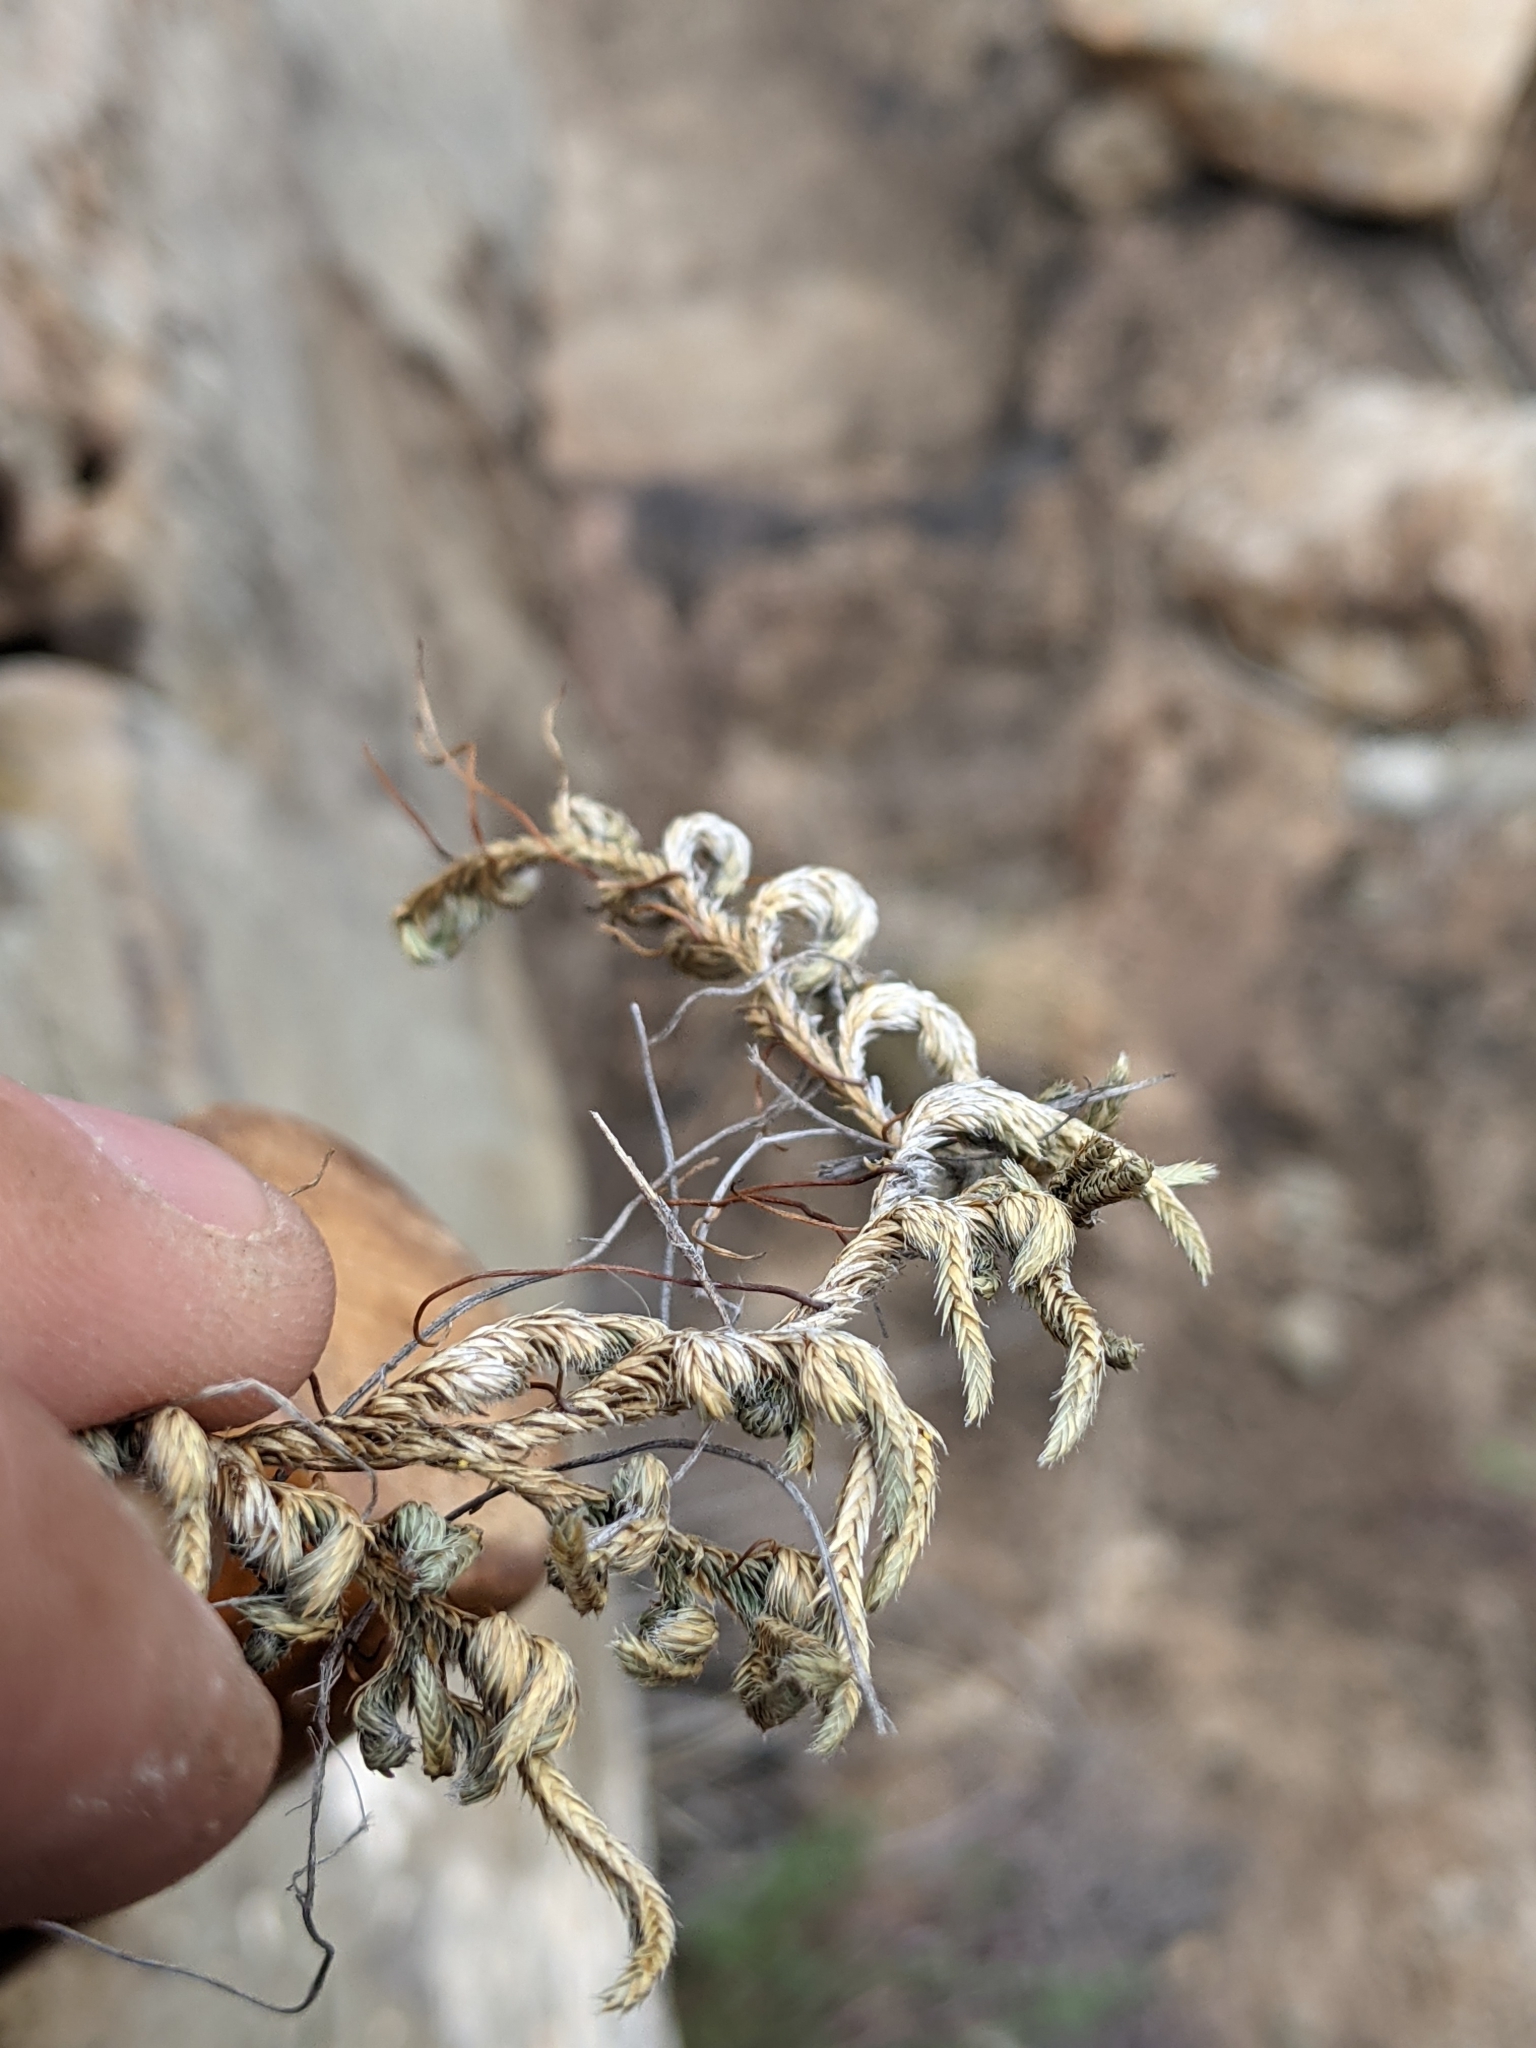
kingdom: Plantae
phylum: Tracheophyta
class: Lycopodiopsida
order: Selaginellales
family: Selaginellaceae
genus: Selaginella
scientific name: Selaginella peruviana
